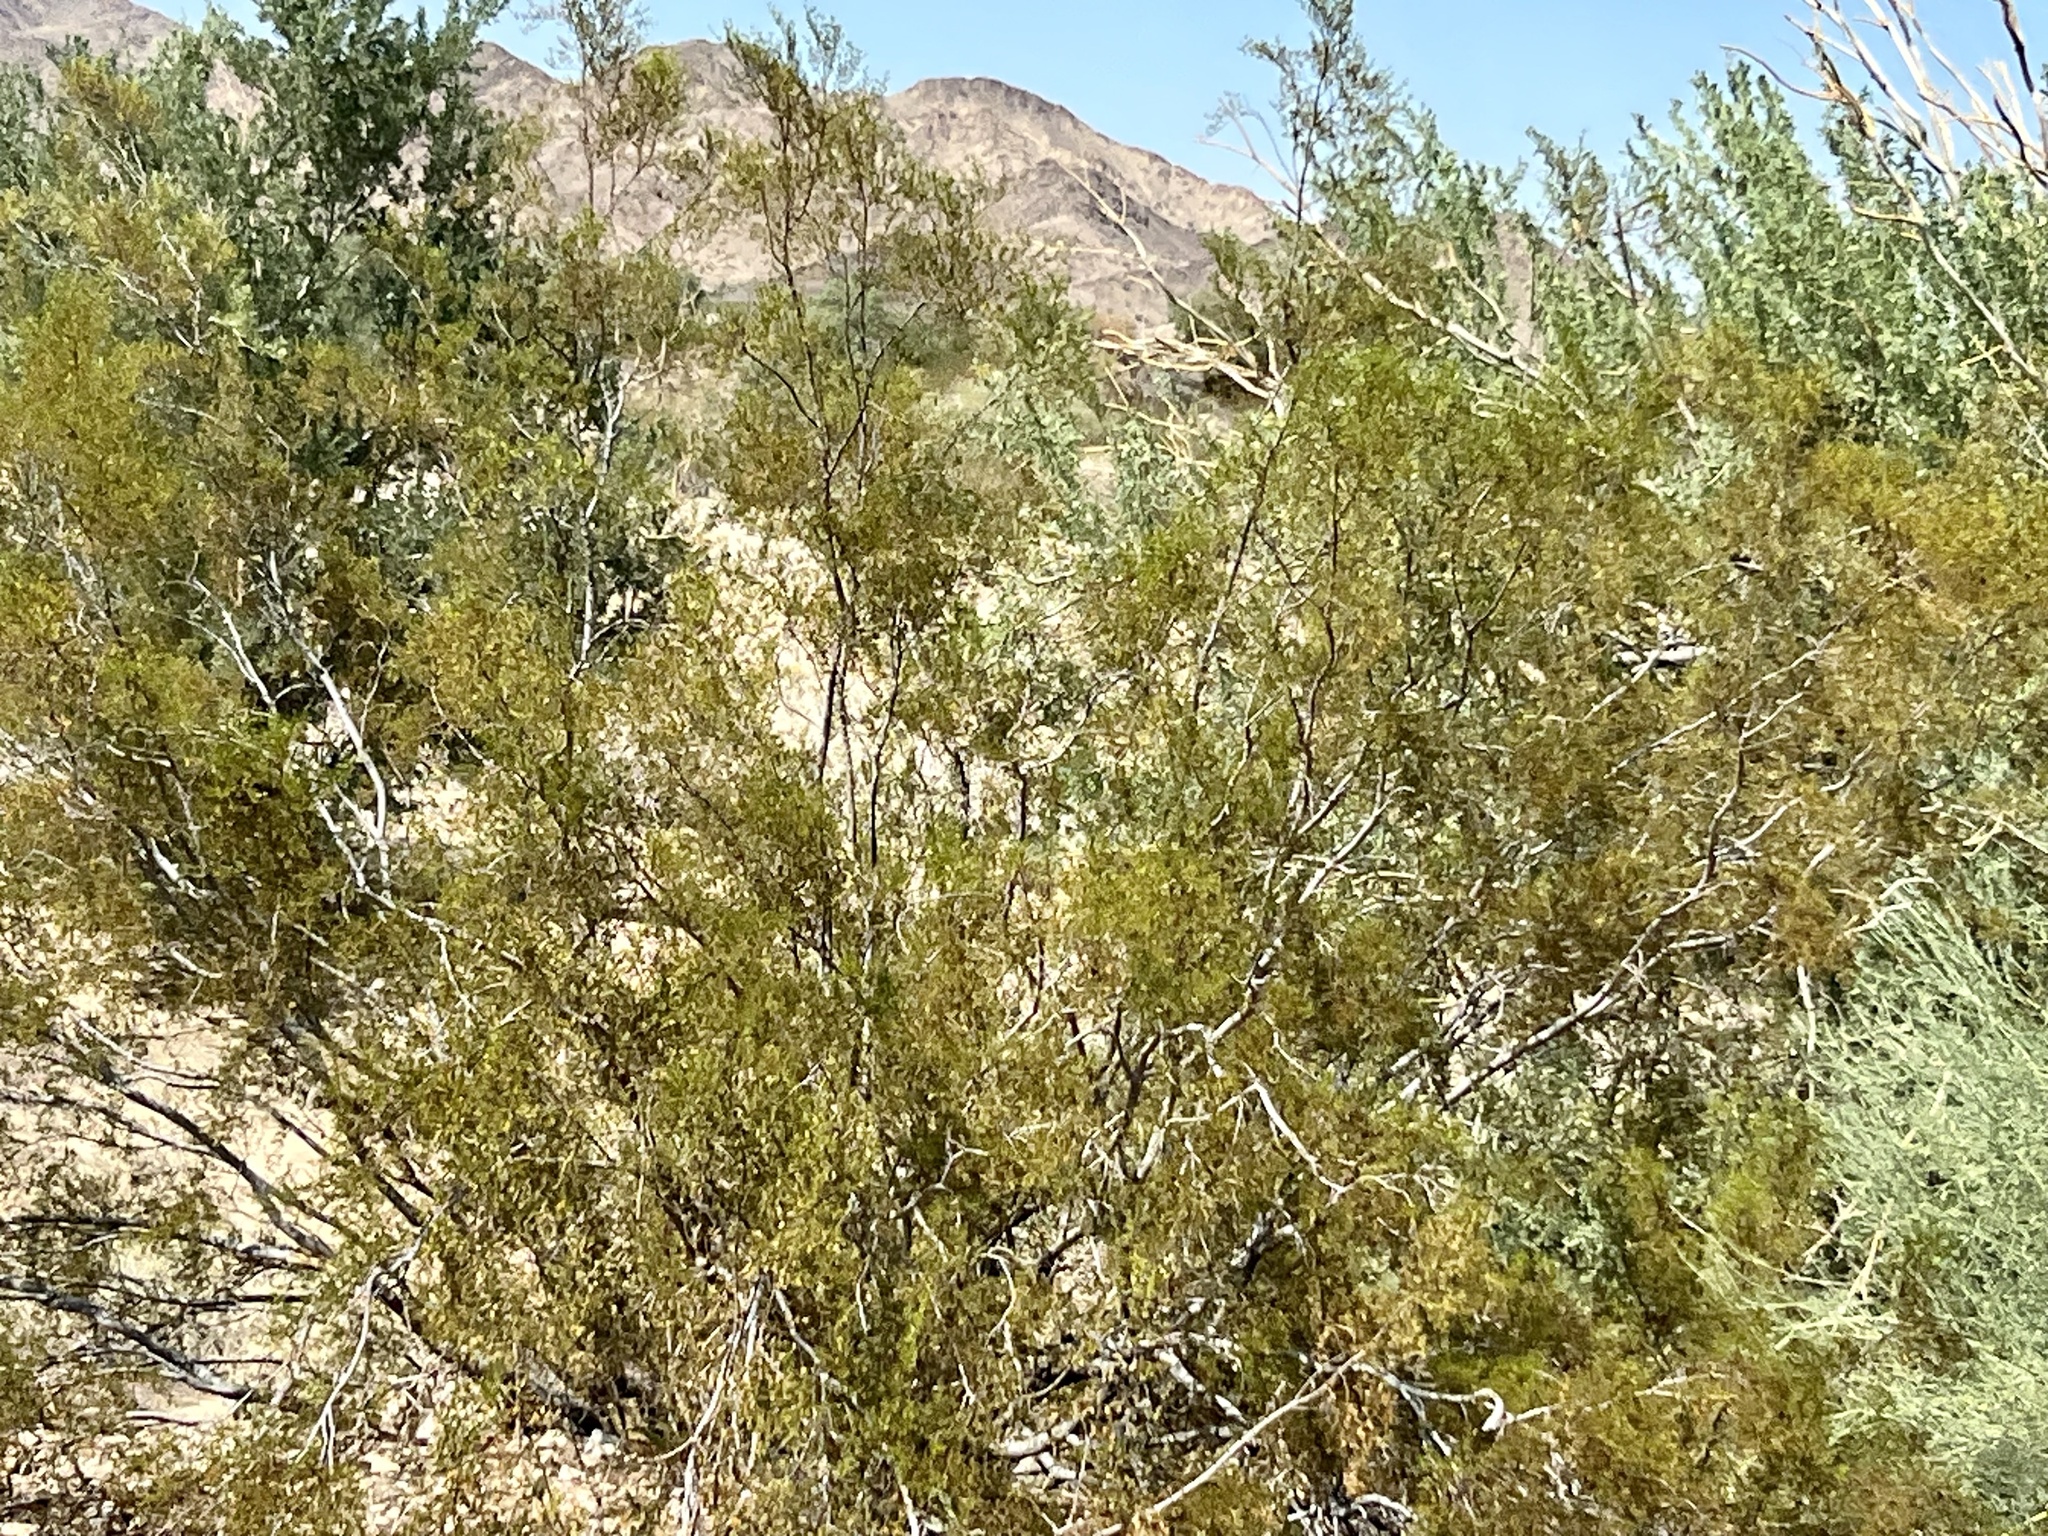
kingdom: Plantae
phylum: Tracheophyta
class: Magnoliopsida
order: Zygophyllales
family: Zygophyllaceae
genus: Larrea
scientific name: Larrea tridentata
